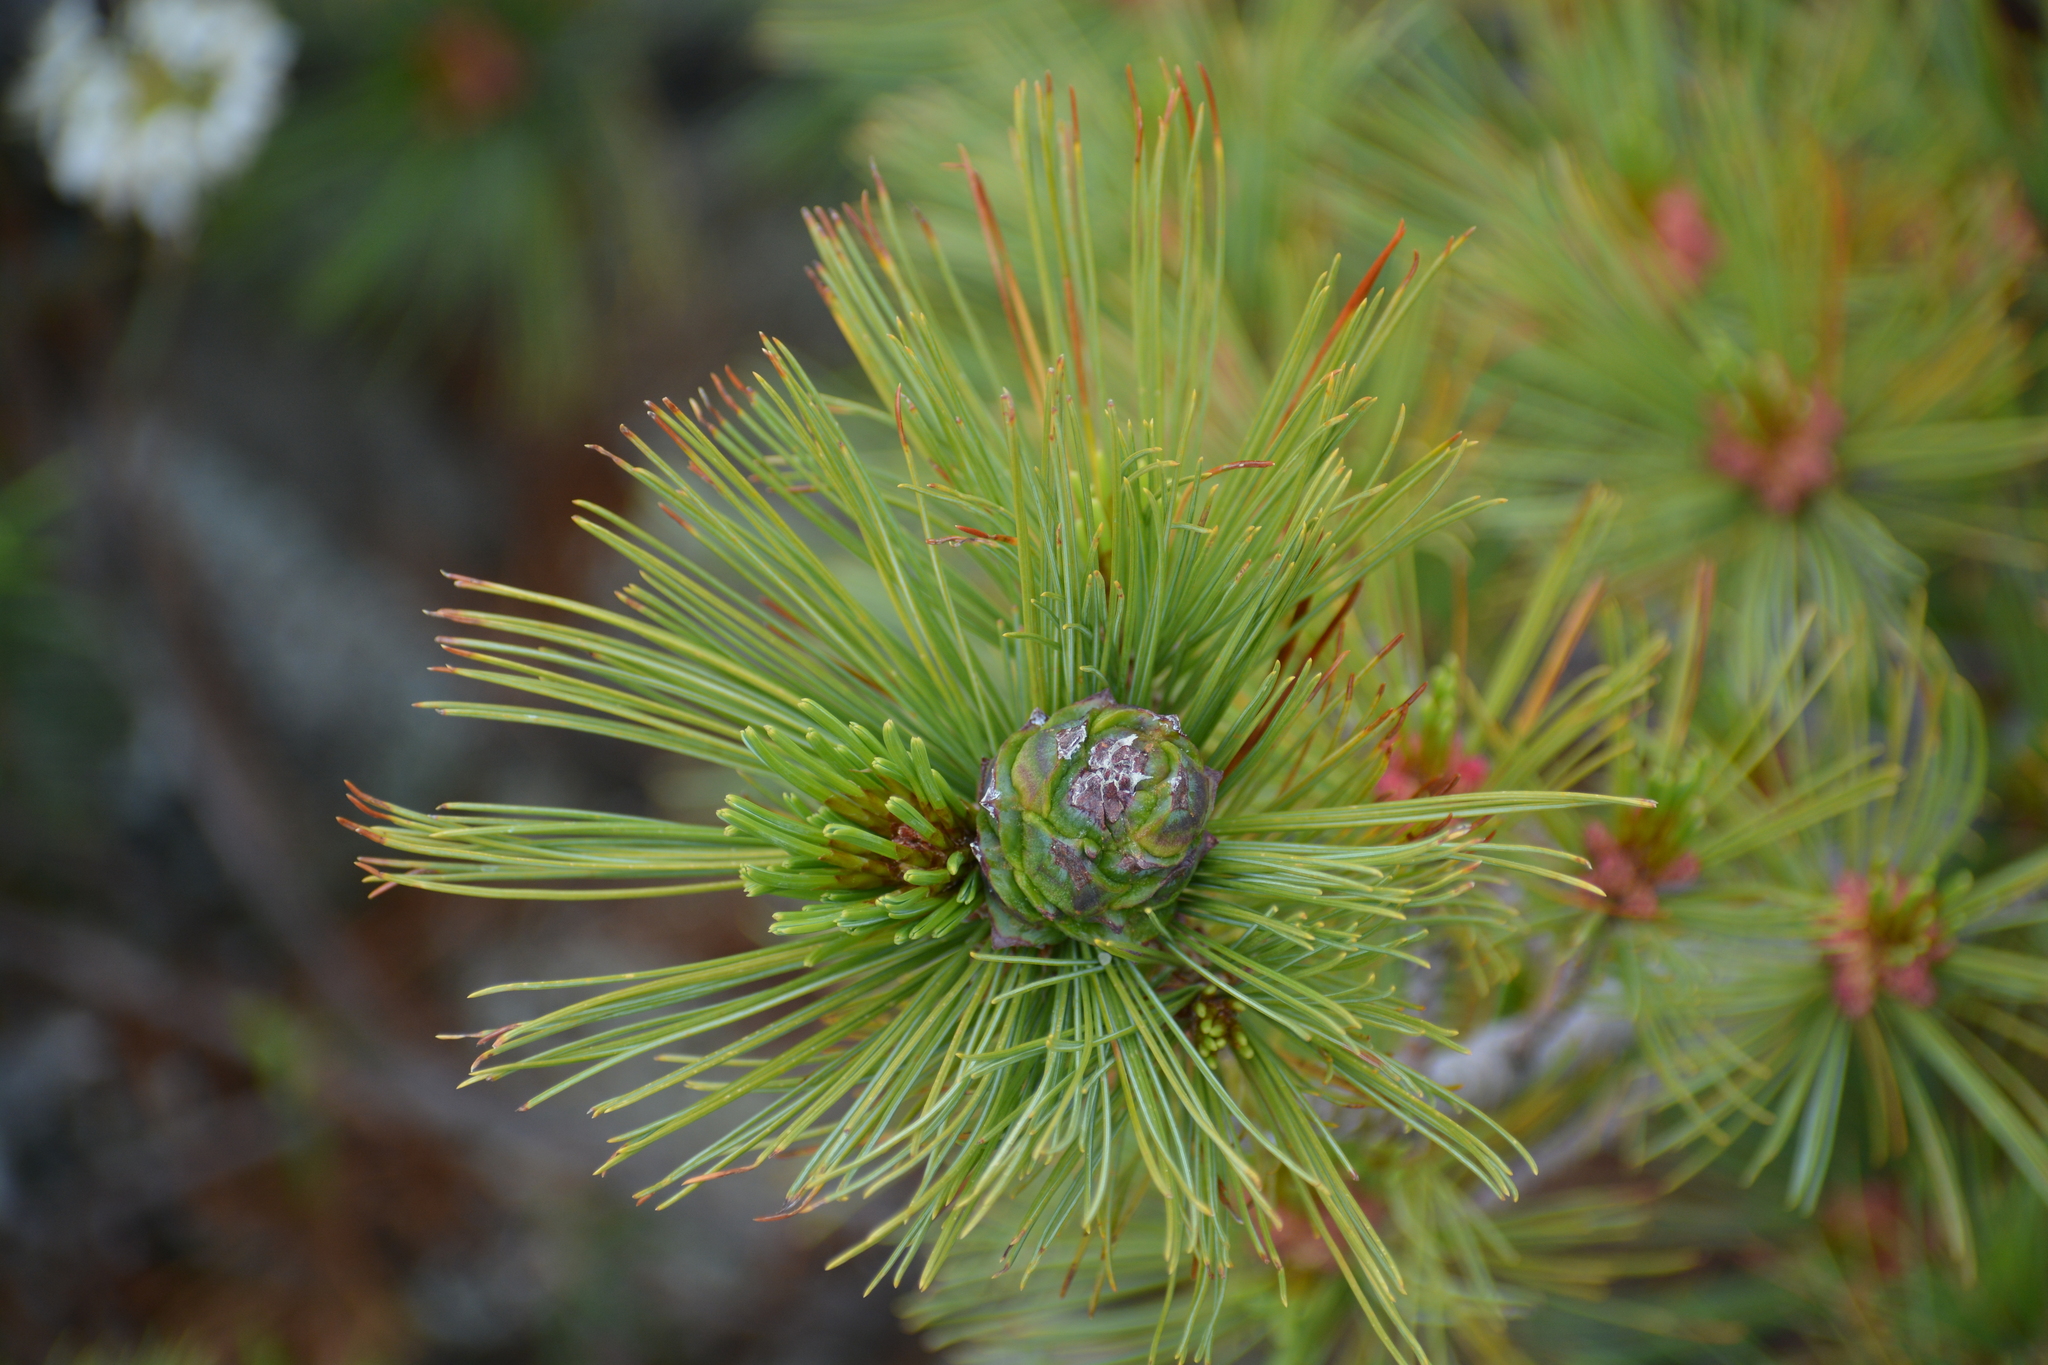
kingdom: Plantae
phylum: Tracheophyta
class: Pinopsida
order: Pinales
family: Pinaceae
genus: Pinus
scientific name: Pinus pumila
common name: Dwarf siberian pine
